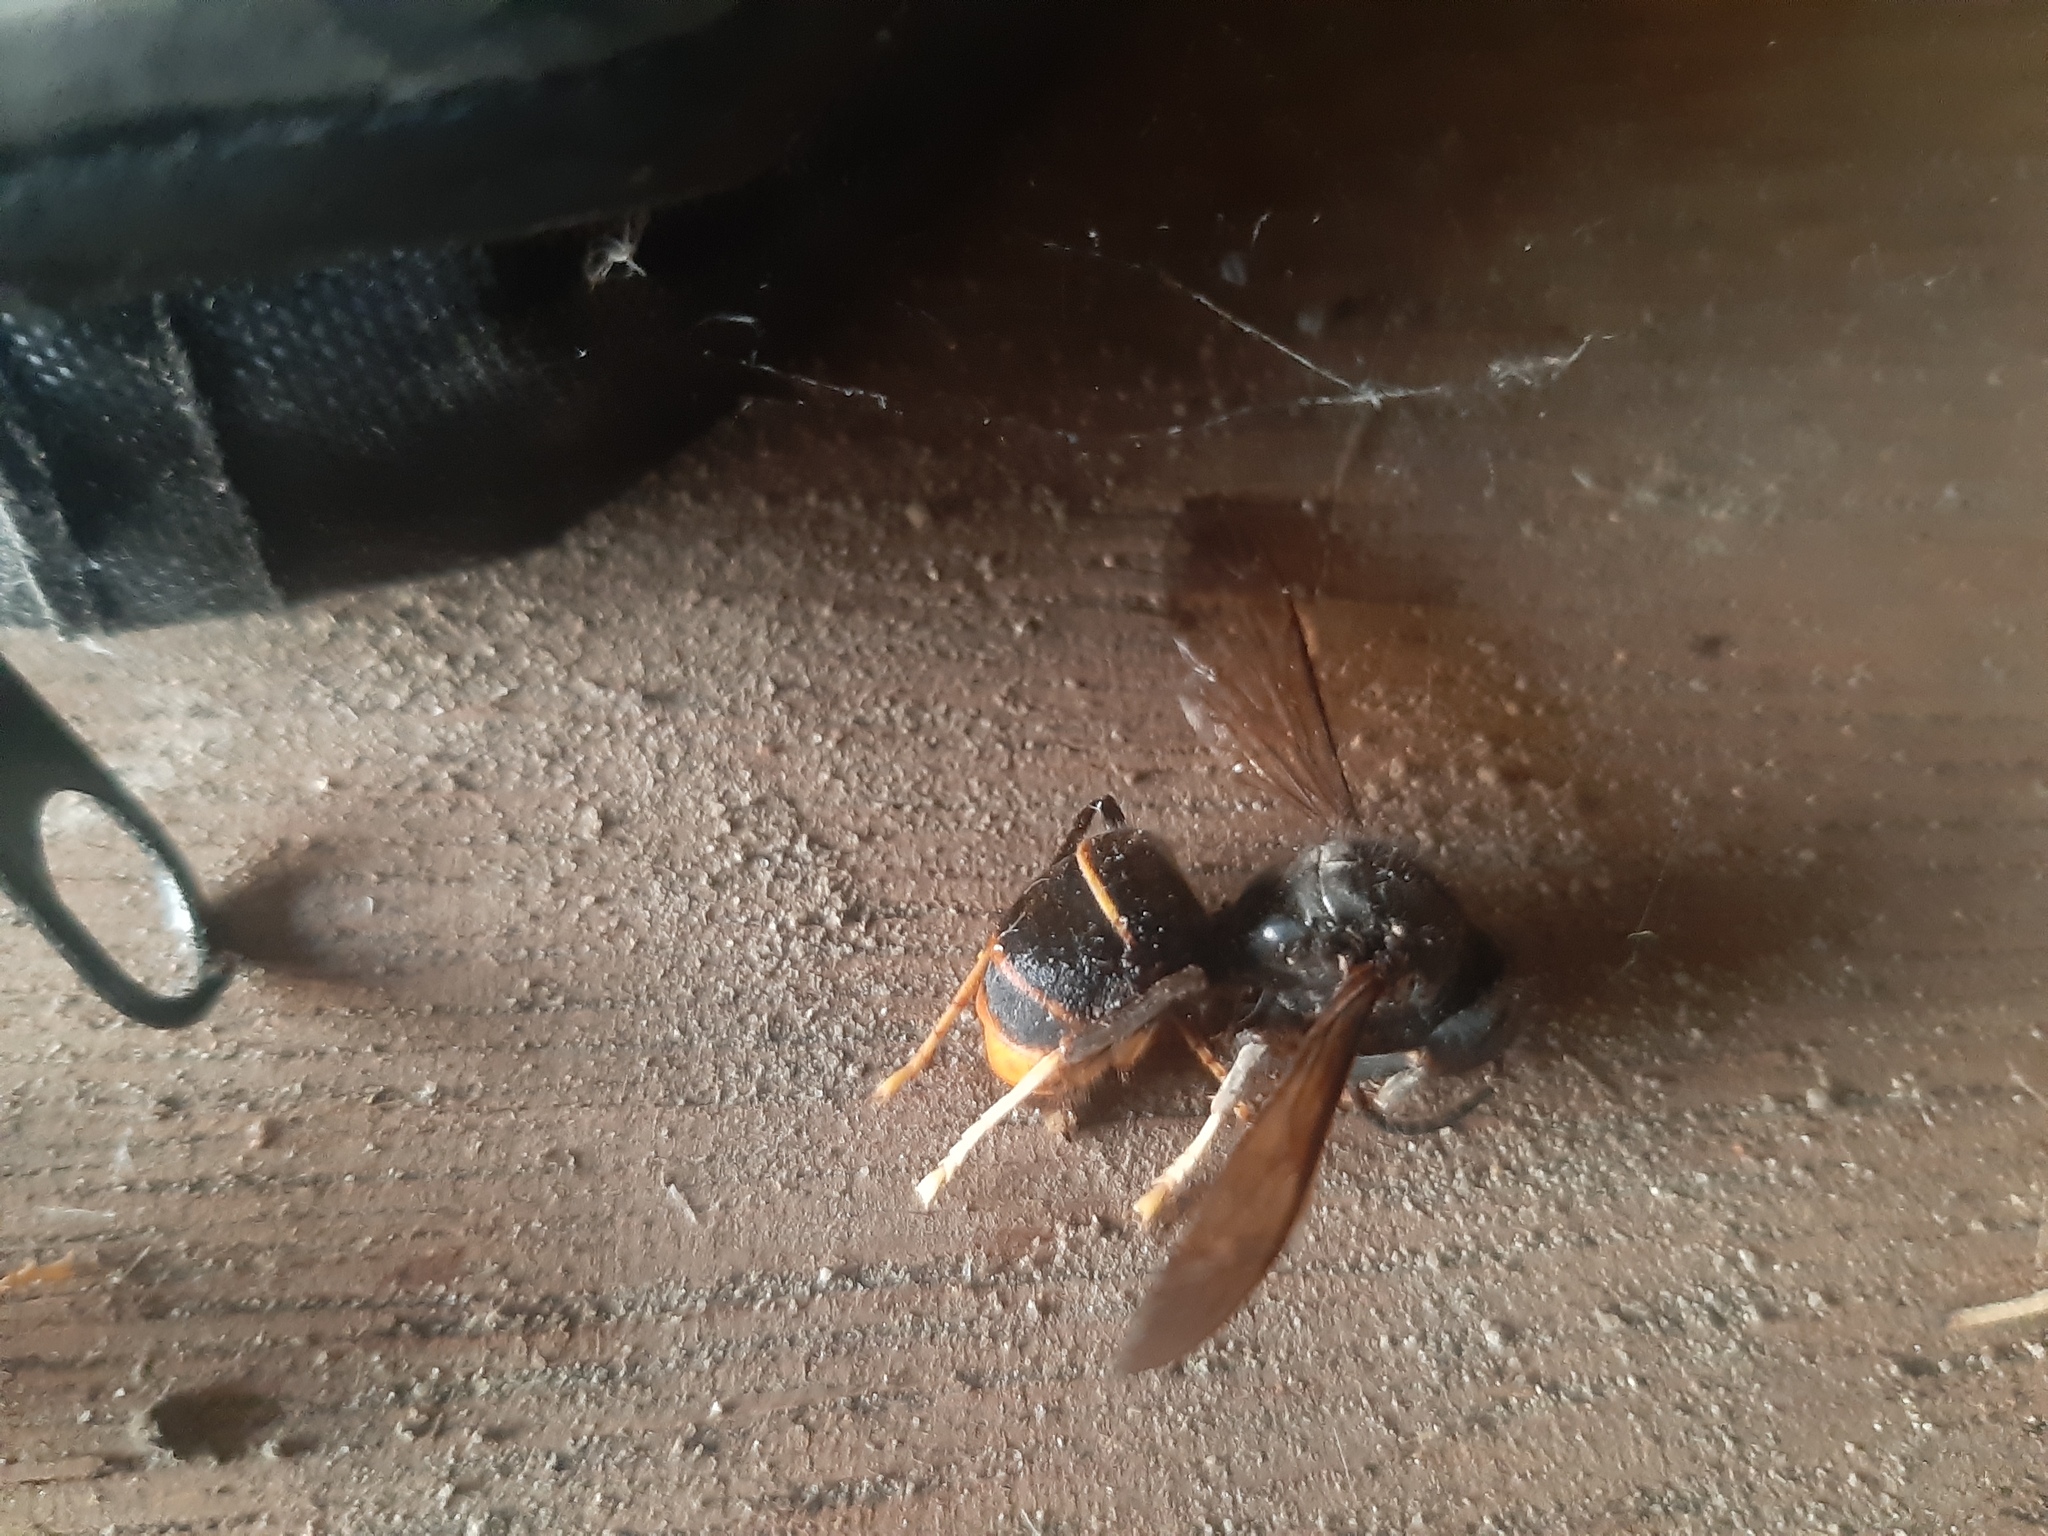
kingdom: Animalia
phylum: Arthropoda
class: Insecta
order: Hymenoptera
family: Vespidae
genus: Vespa
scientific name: Vespa velutina
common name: Asian hornet
